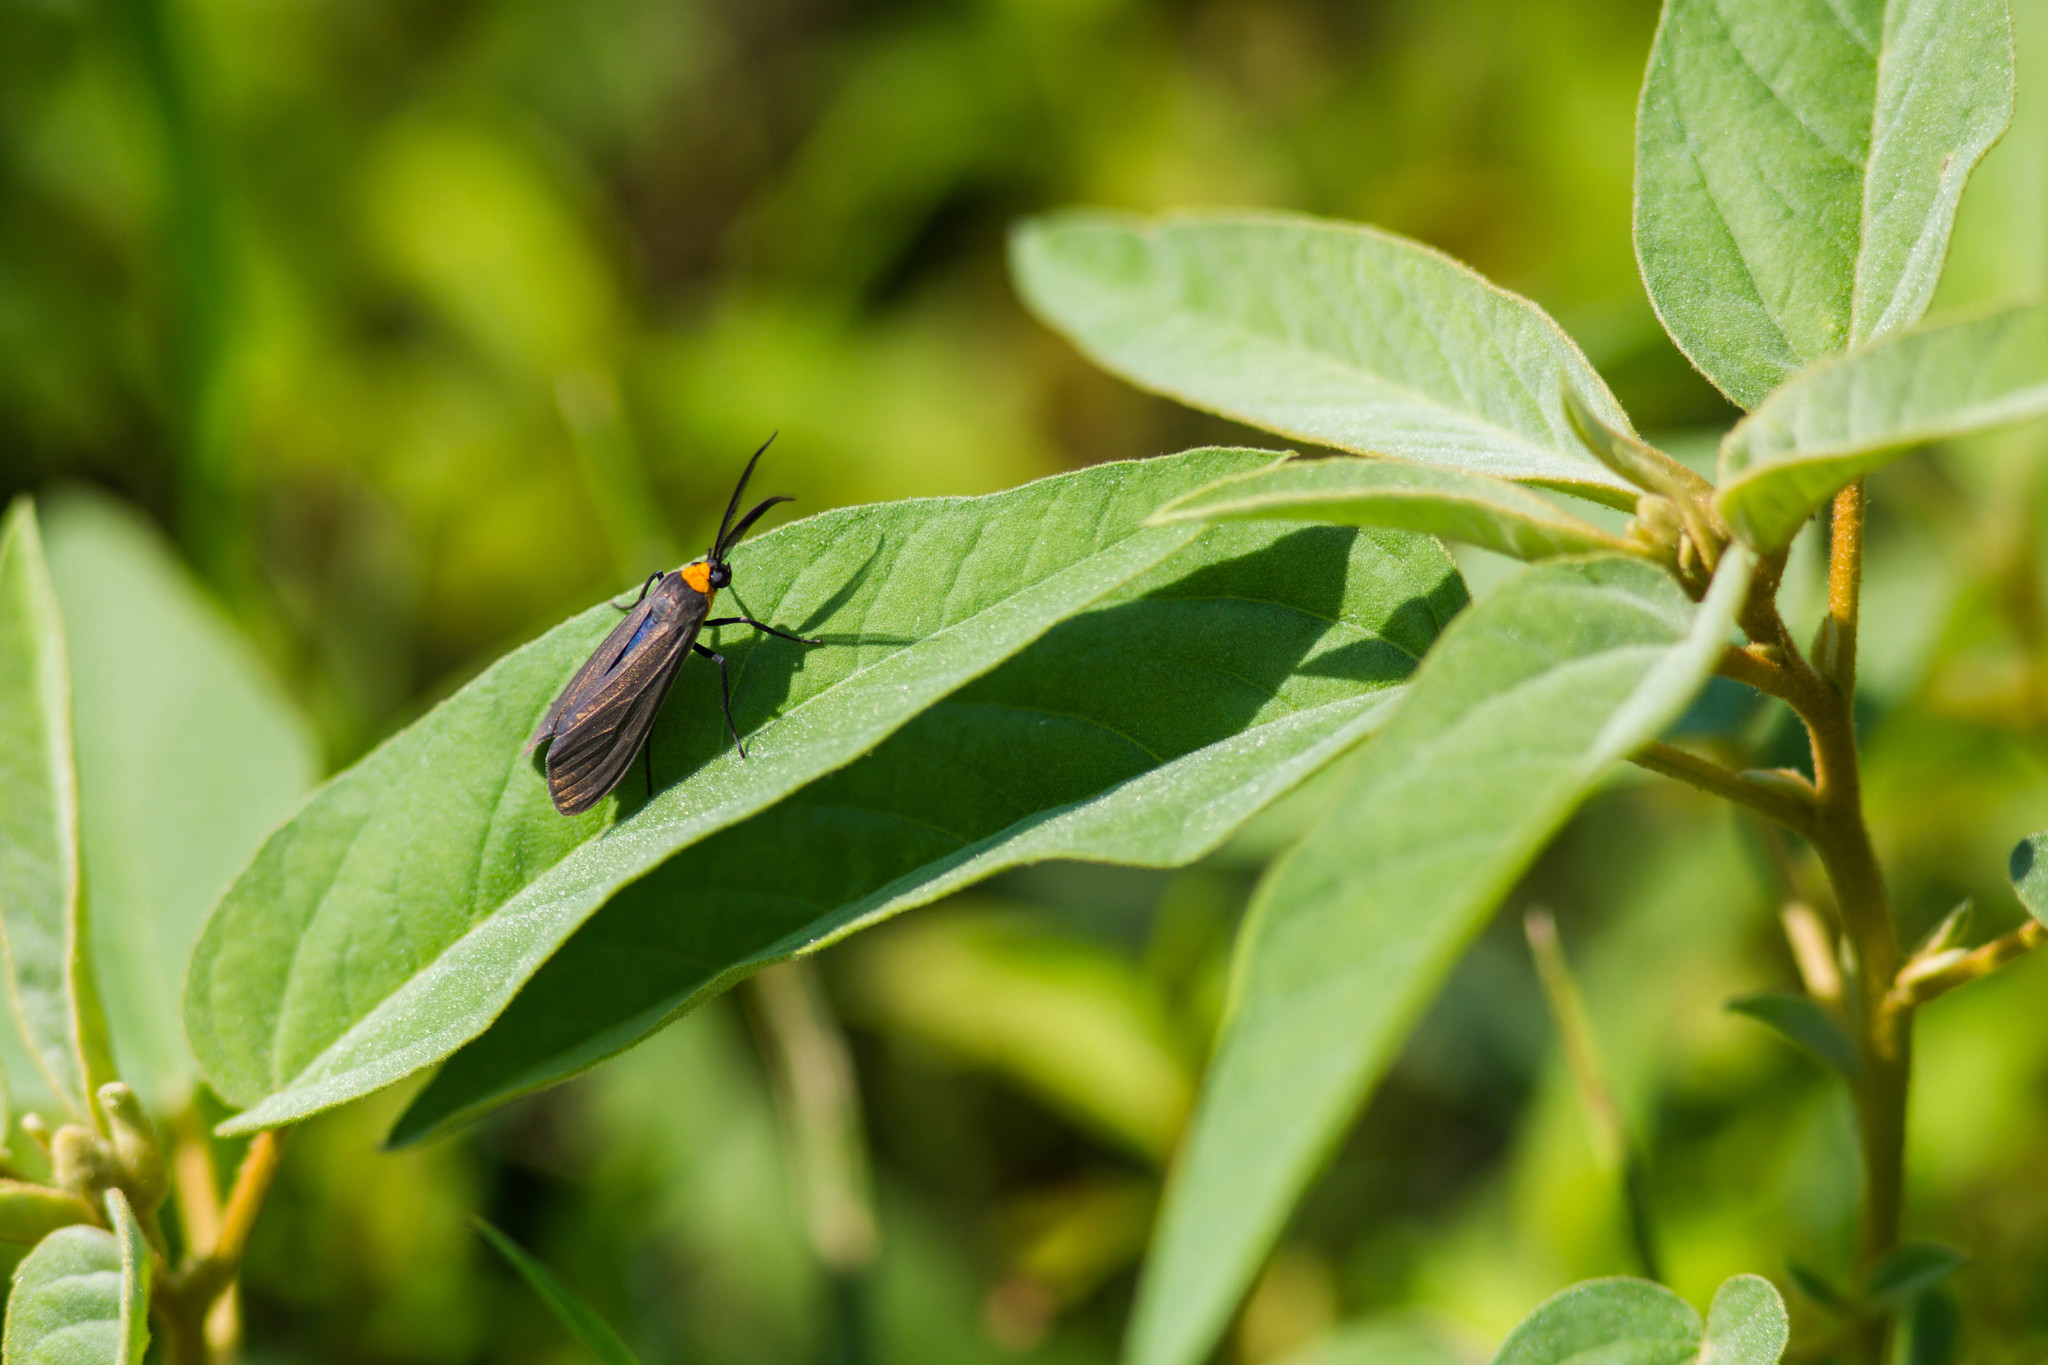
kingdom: Animalia
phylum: Arthropoda
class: Insecta
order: Lepidoptera
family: Erebidae
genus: Cisseps
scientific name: Cisseps fulvicollis
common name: Yellow-collared scape moth
